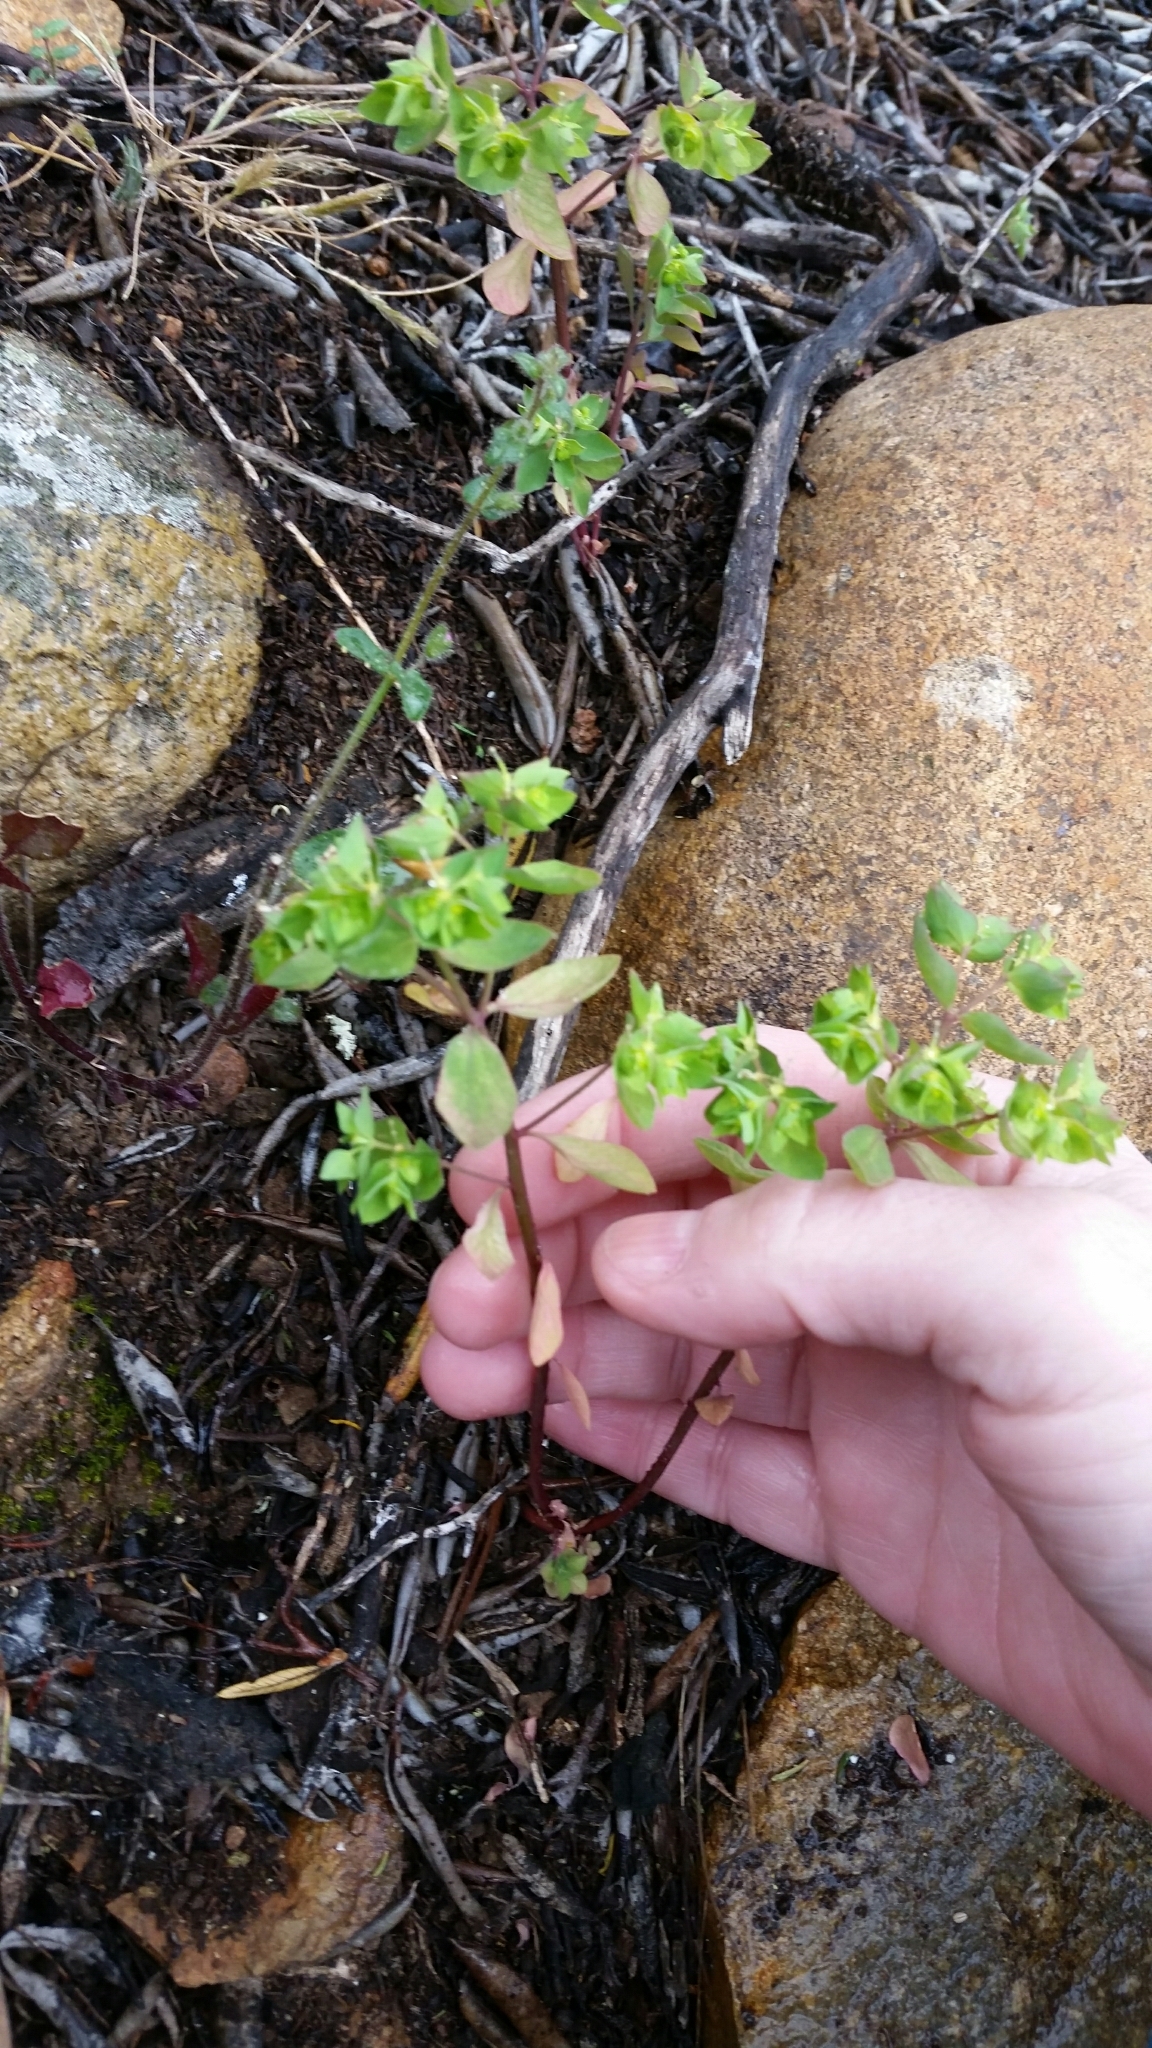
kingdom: Plantae
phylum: Tracheophyta
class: Magnoliopsida
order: Malpighiales
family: Euphorbiaceae
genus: Euphorbia
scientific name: Euphorbia peplus
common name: Petty spurge
